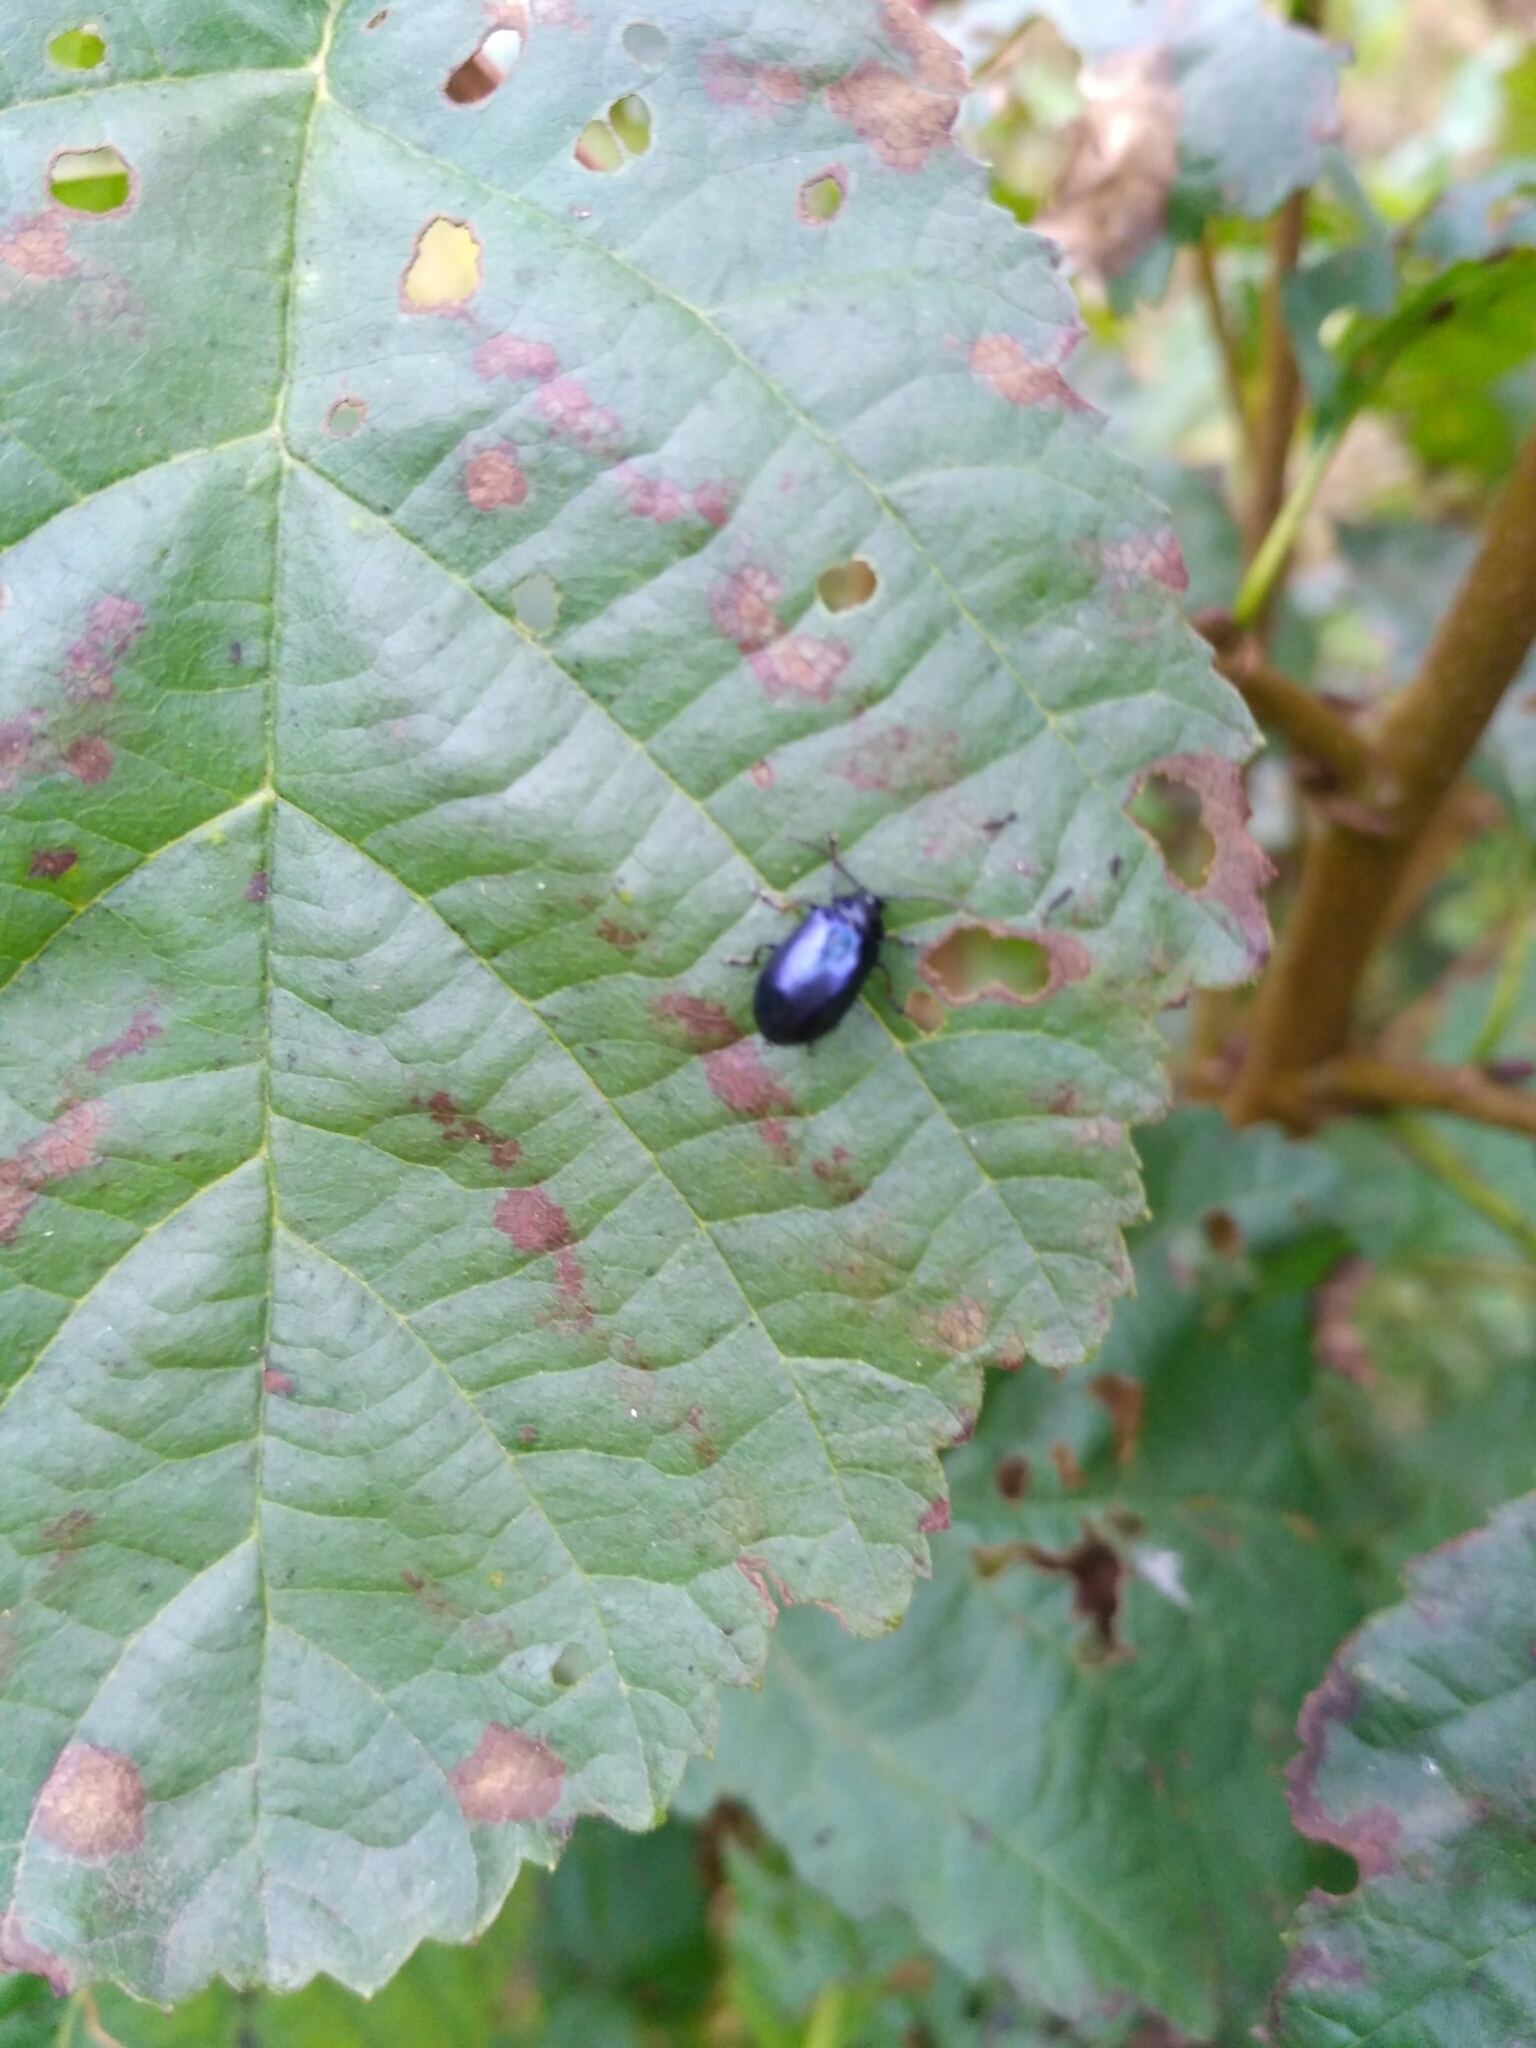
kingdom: Animalia
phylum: Arthropoda
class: Insecta
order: Coleoptera
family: Chrysomelidae
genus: Agelastica
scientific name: Agelastica alni
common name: Alder leaf beetle
